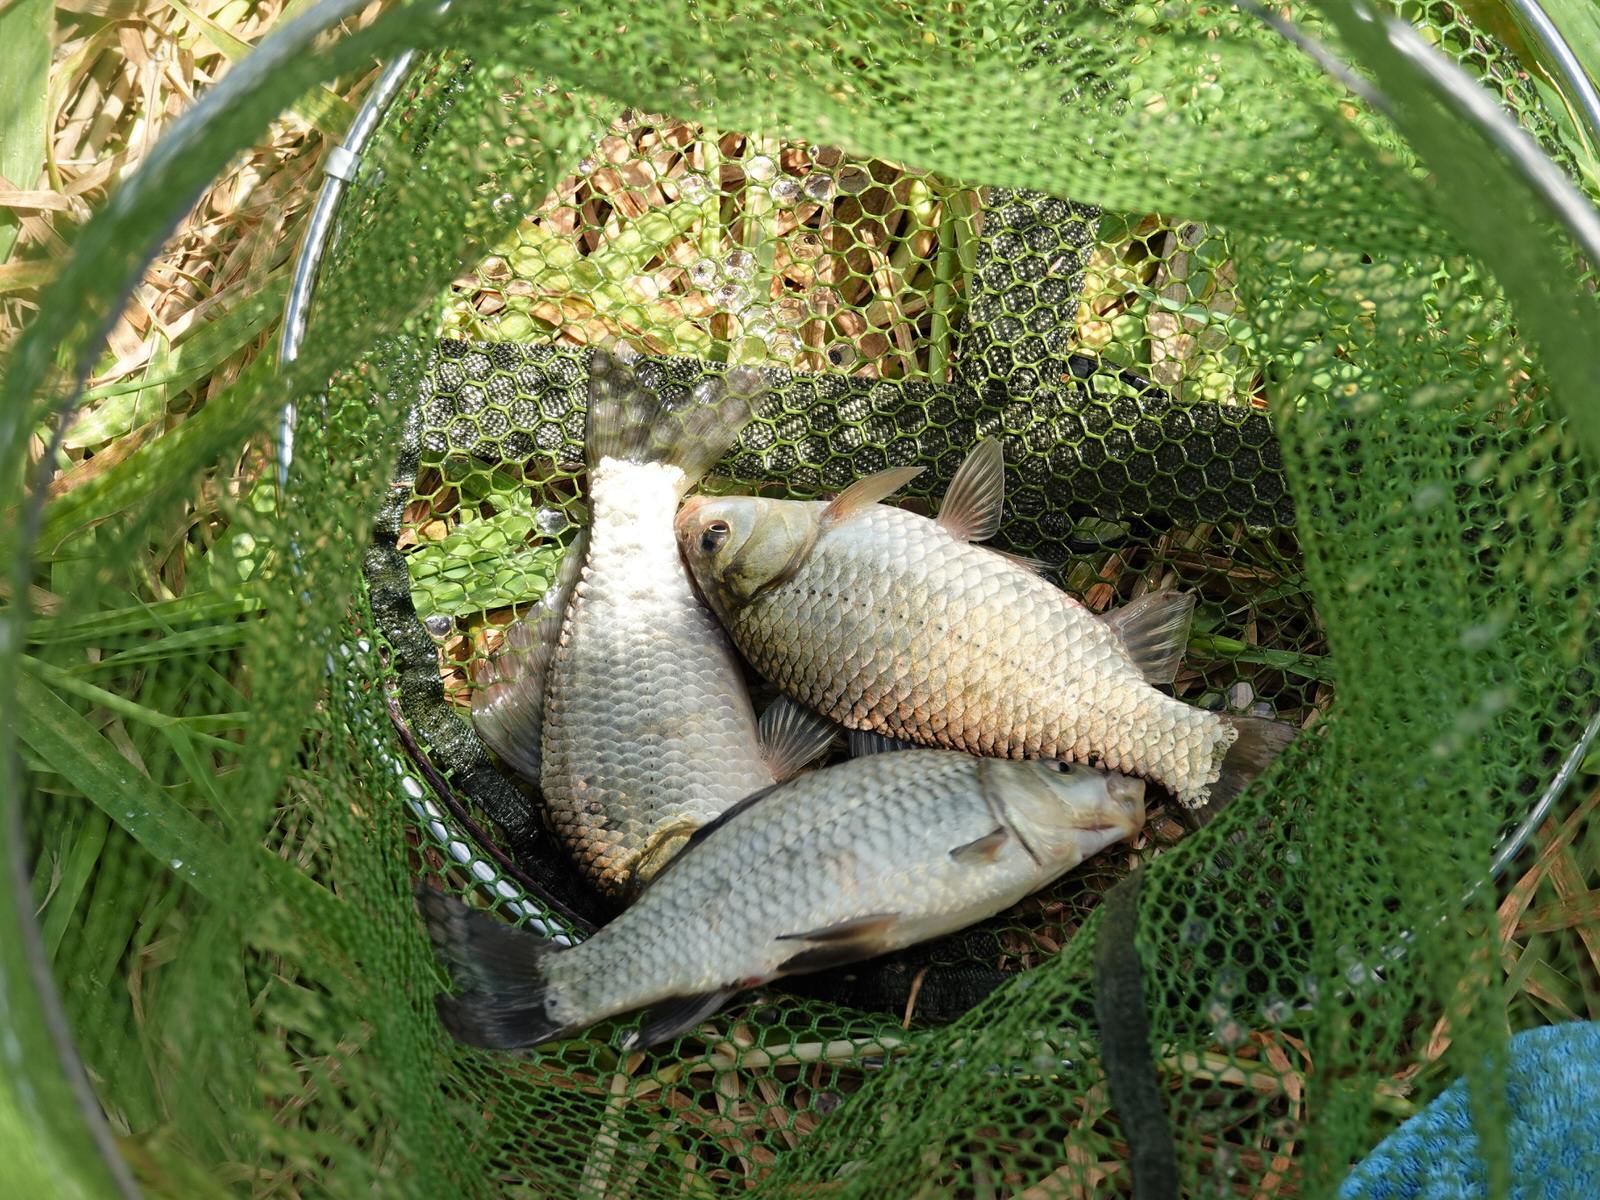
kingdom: Animalia
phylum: Chordata
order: Cypriniformes
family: Cyprinidae
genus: Carassius
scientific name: Carassius auratus
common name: Goldfish
